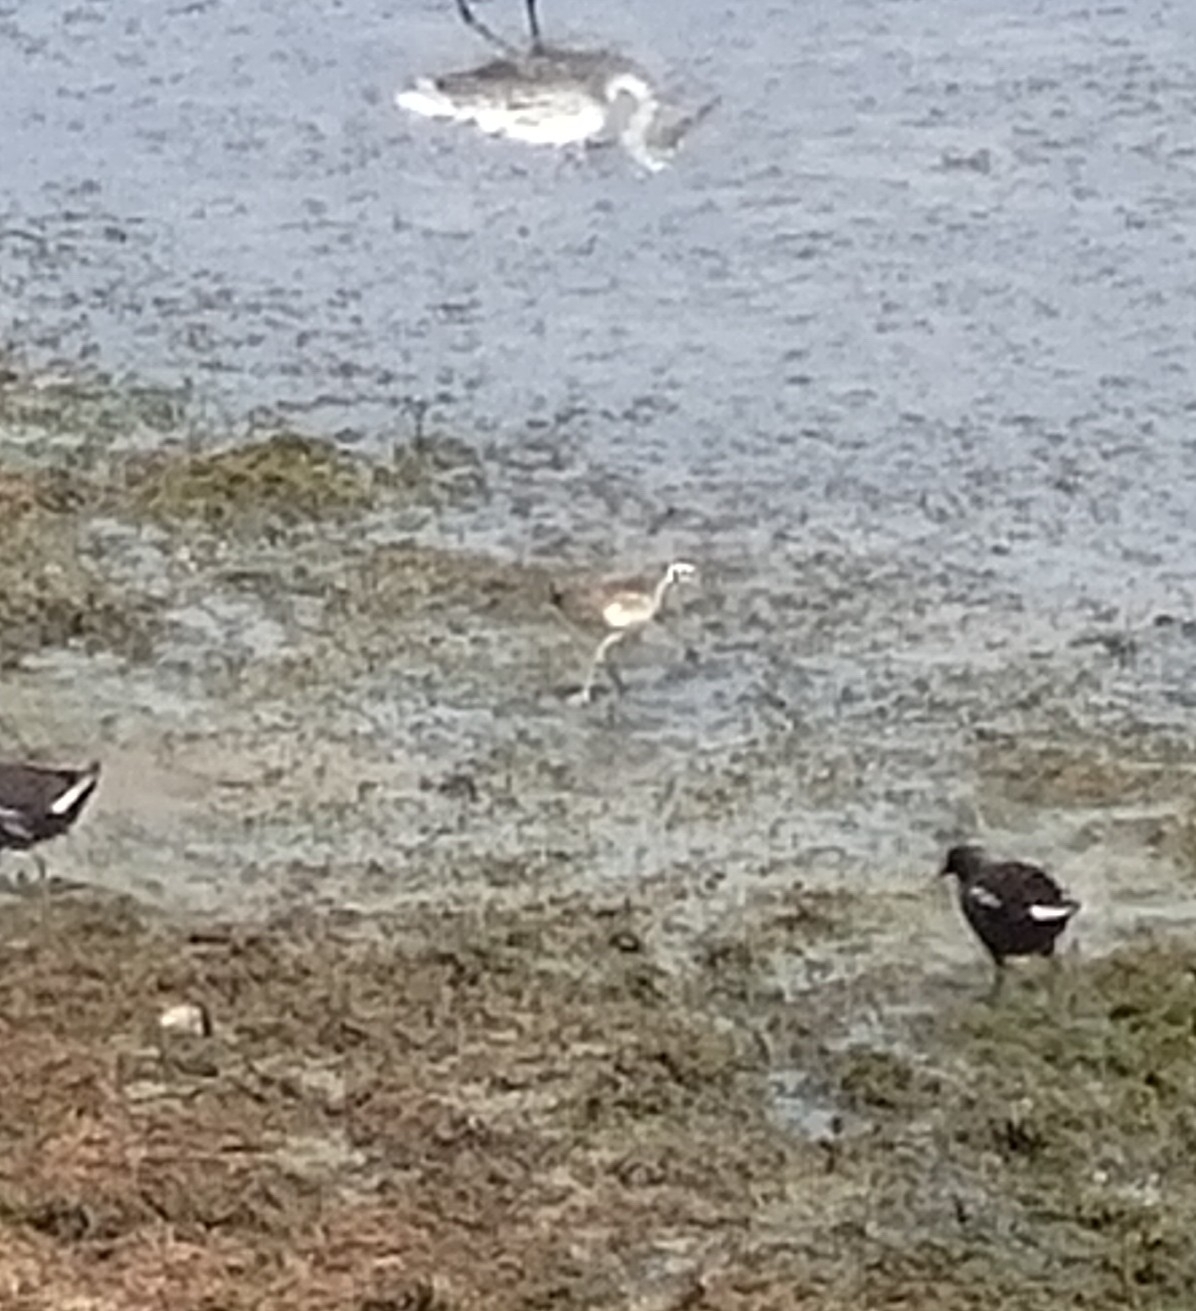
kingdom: Animalia
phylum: Chordata
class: Aves
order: Charadriiformes
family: Jacanidae
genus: Hydrophasianus
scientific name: Hydrophasianus chirurgus
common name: Pheasant-tailed jacana
